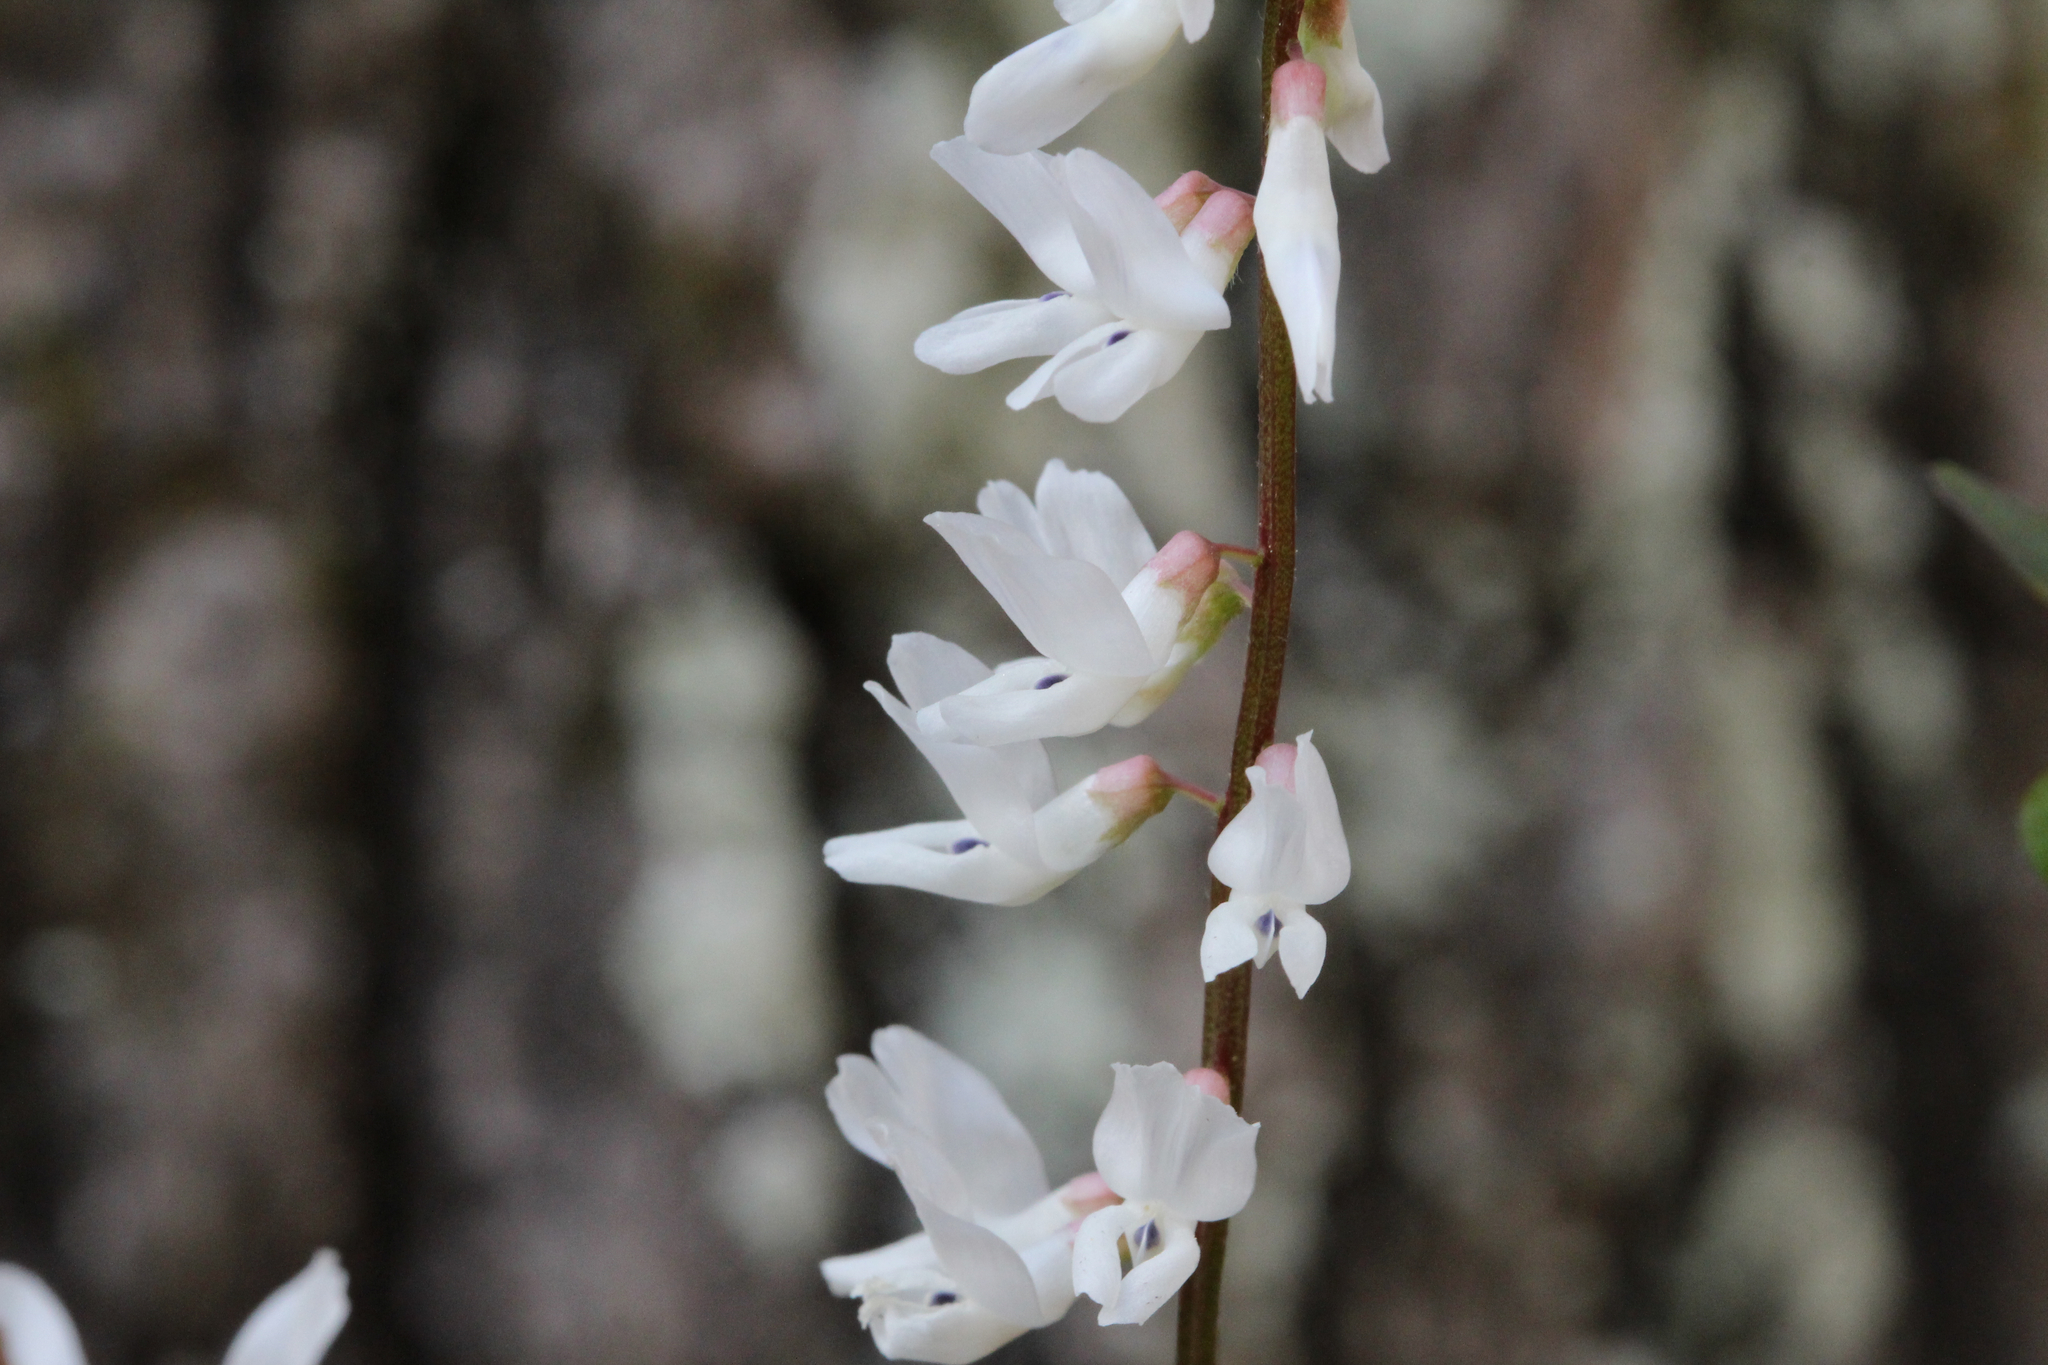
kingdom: Plantae
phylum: Tracheophyta
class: Magnoliopsida
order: Fabales
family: Fabaceae
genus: Vicia
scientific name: Vicia caroliniana
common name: Carolina vetch
